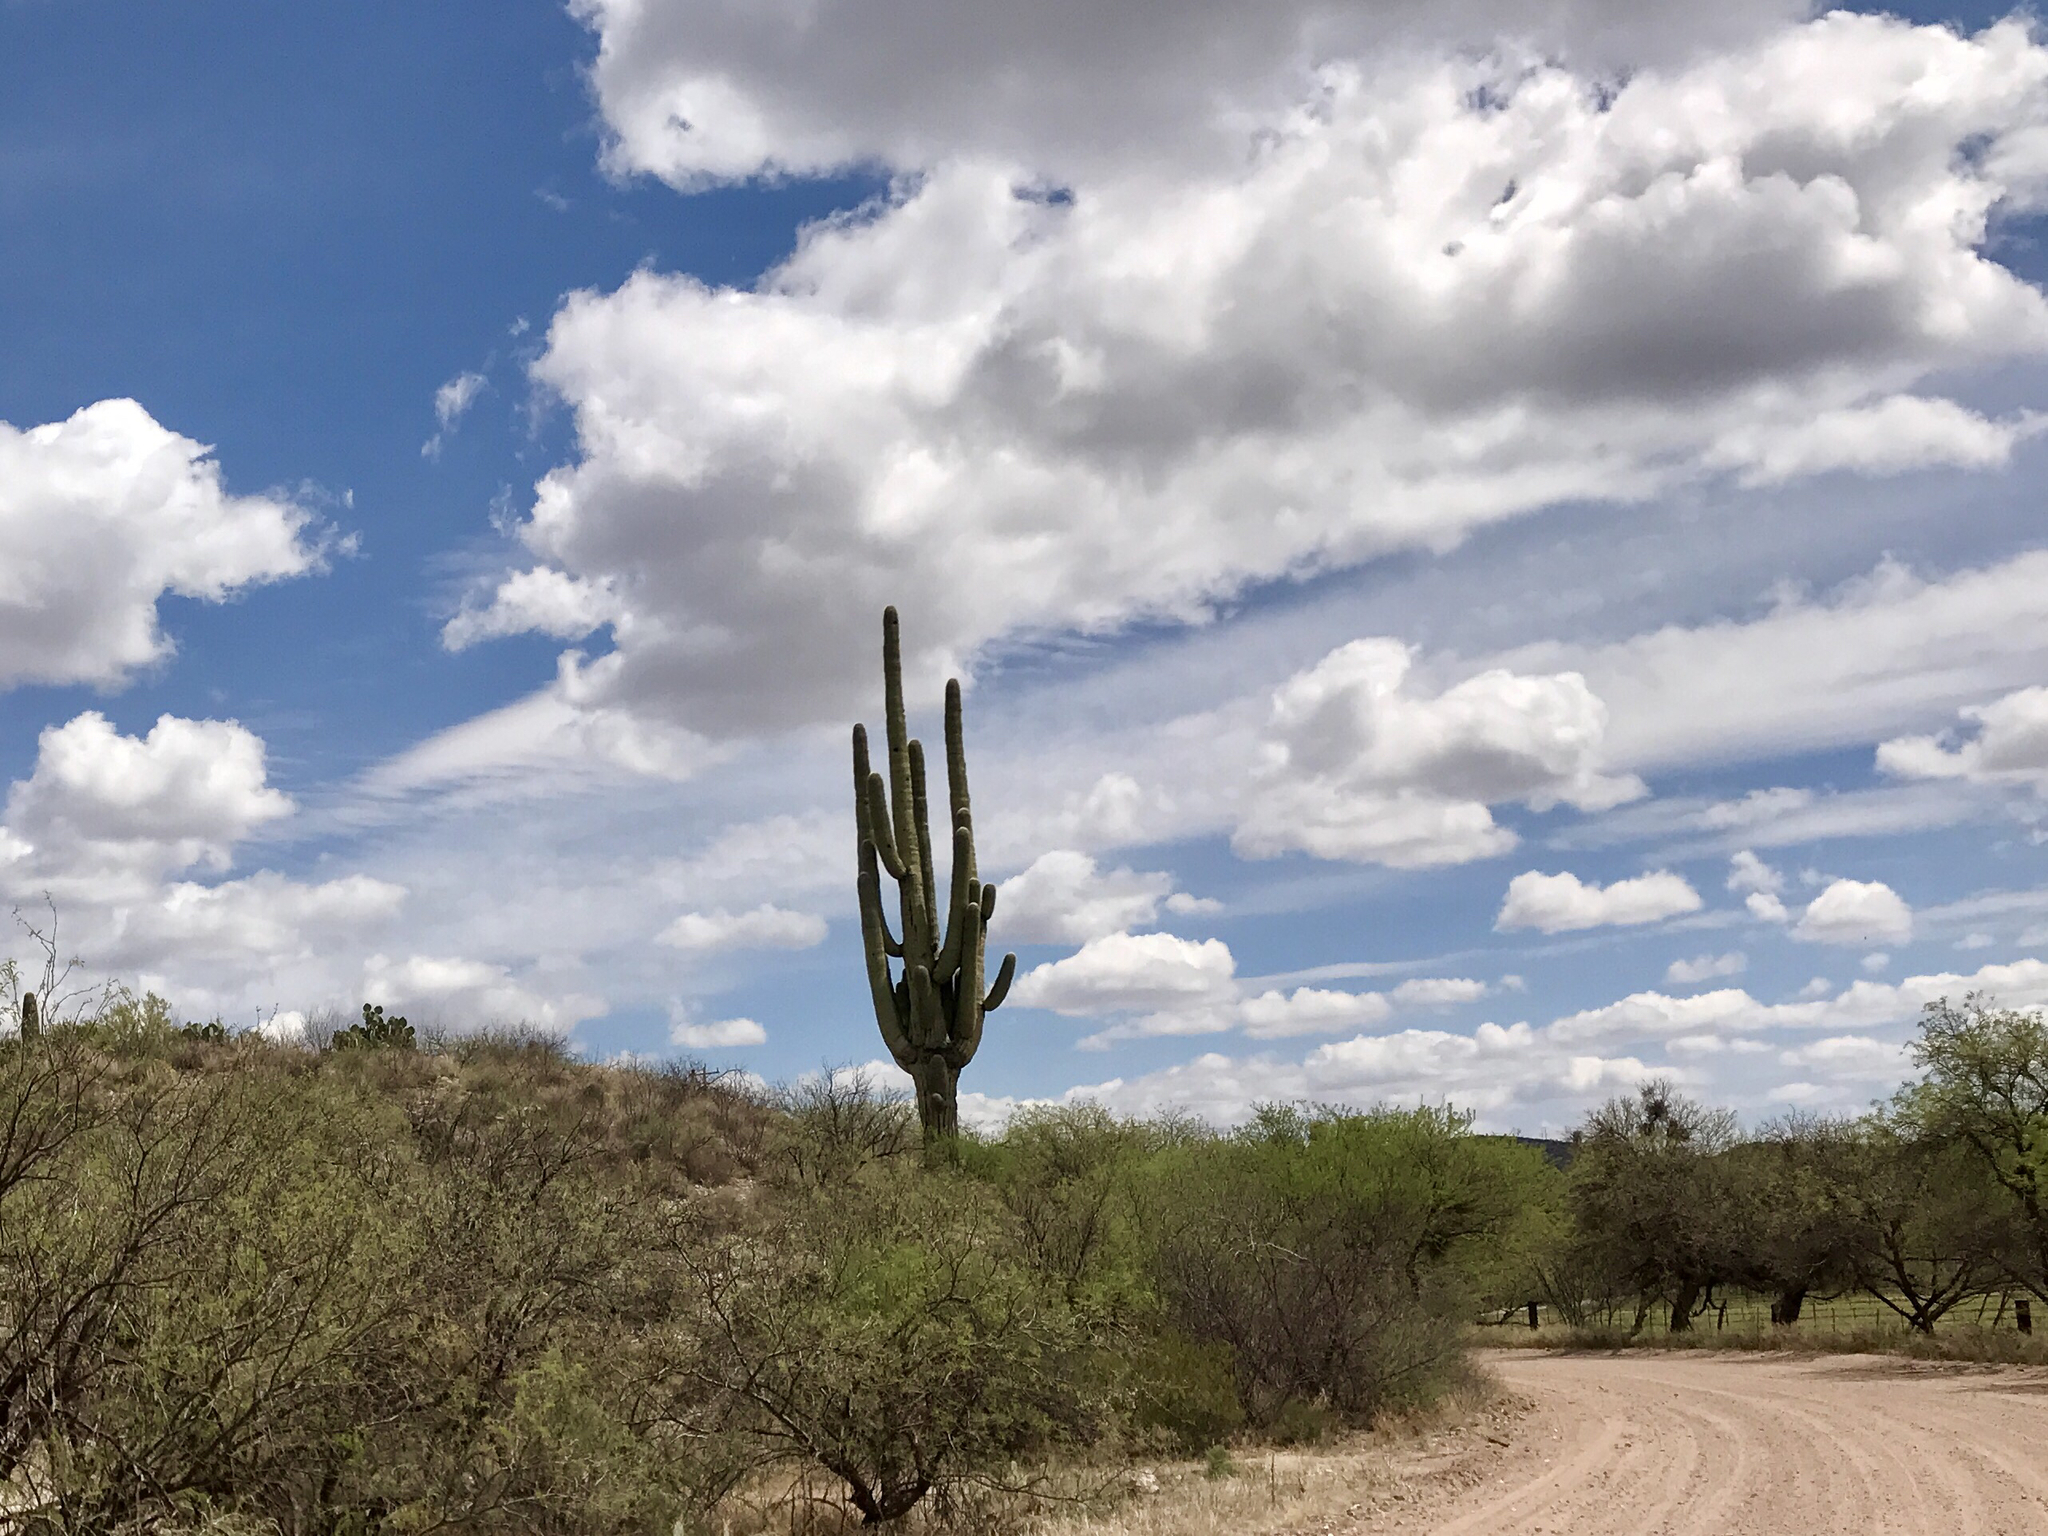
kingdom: Plantae
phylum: Tracheophyta
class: Magnoliopsida
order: Caryophyllales
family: Cactaceae
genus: Carnegiea
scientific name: Carnegiea gigantea
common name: Saguaro
